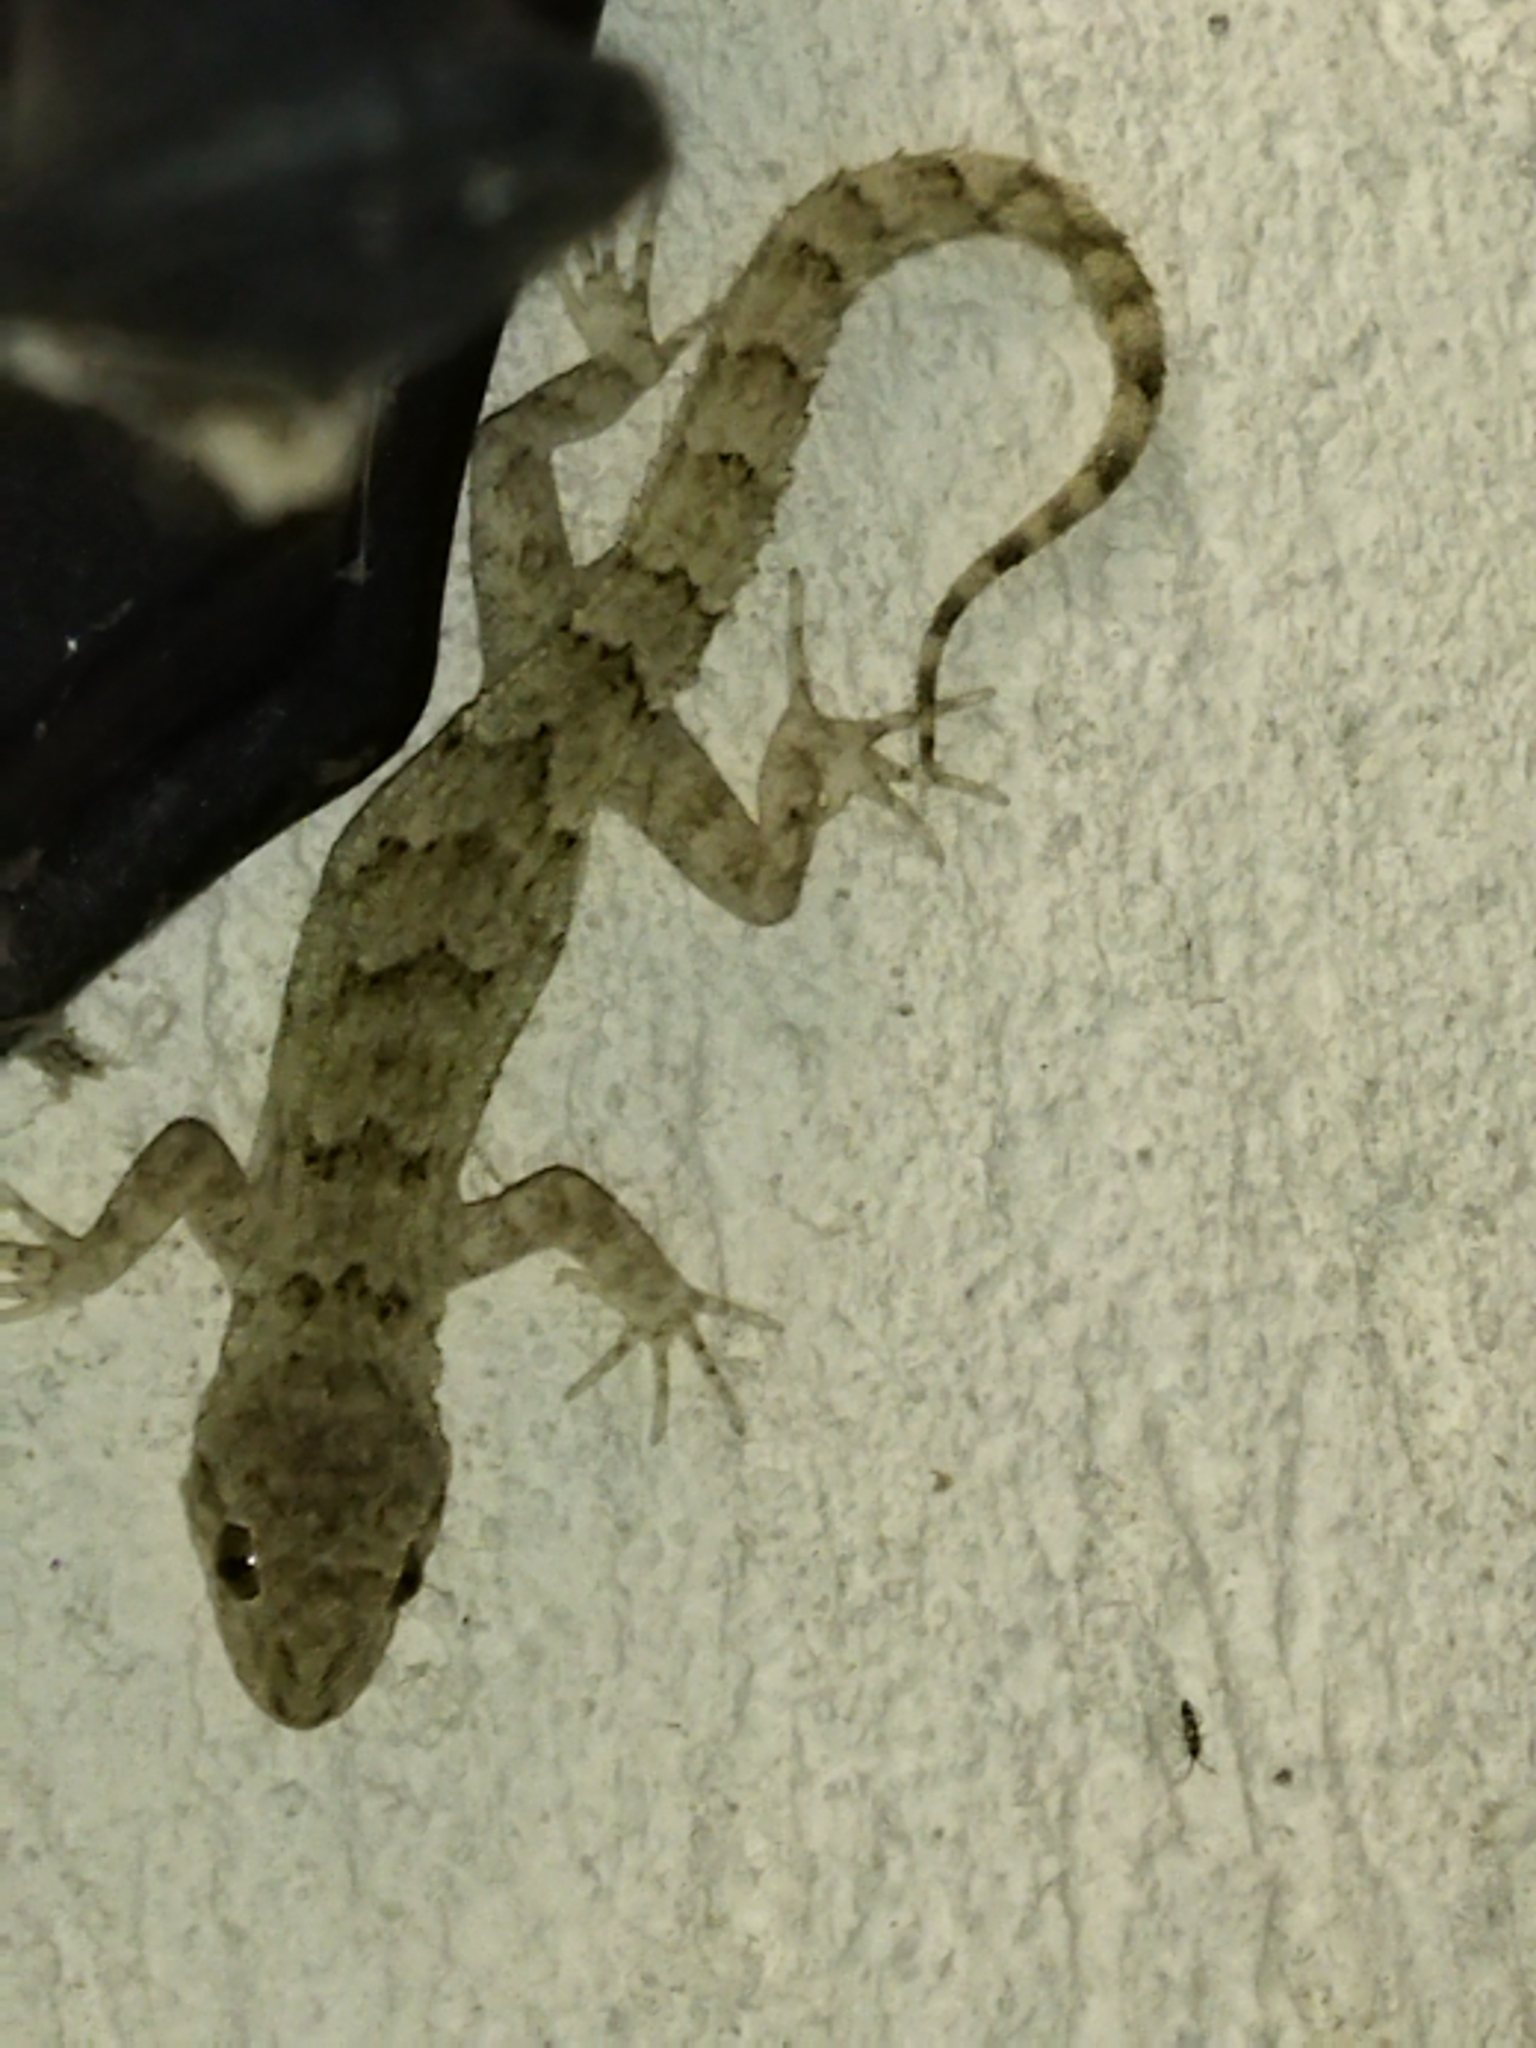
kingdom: Animalia
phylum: Chordata
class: Squamata
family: Gekkonidae
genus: Mediodactylus
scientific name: Mediodactylus kotschyi
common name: Kotschy's gecko
